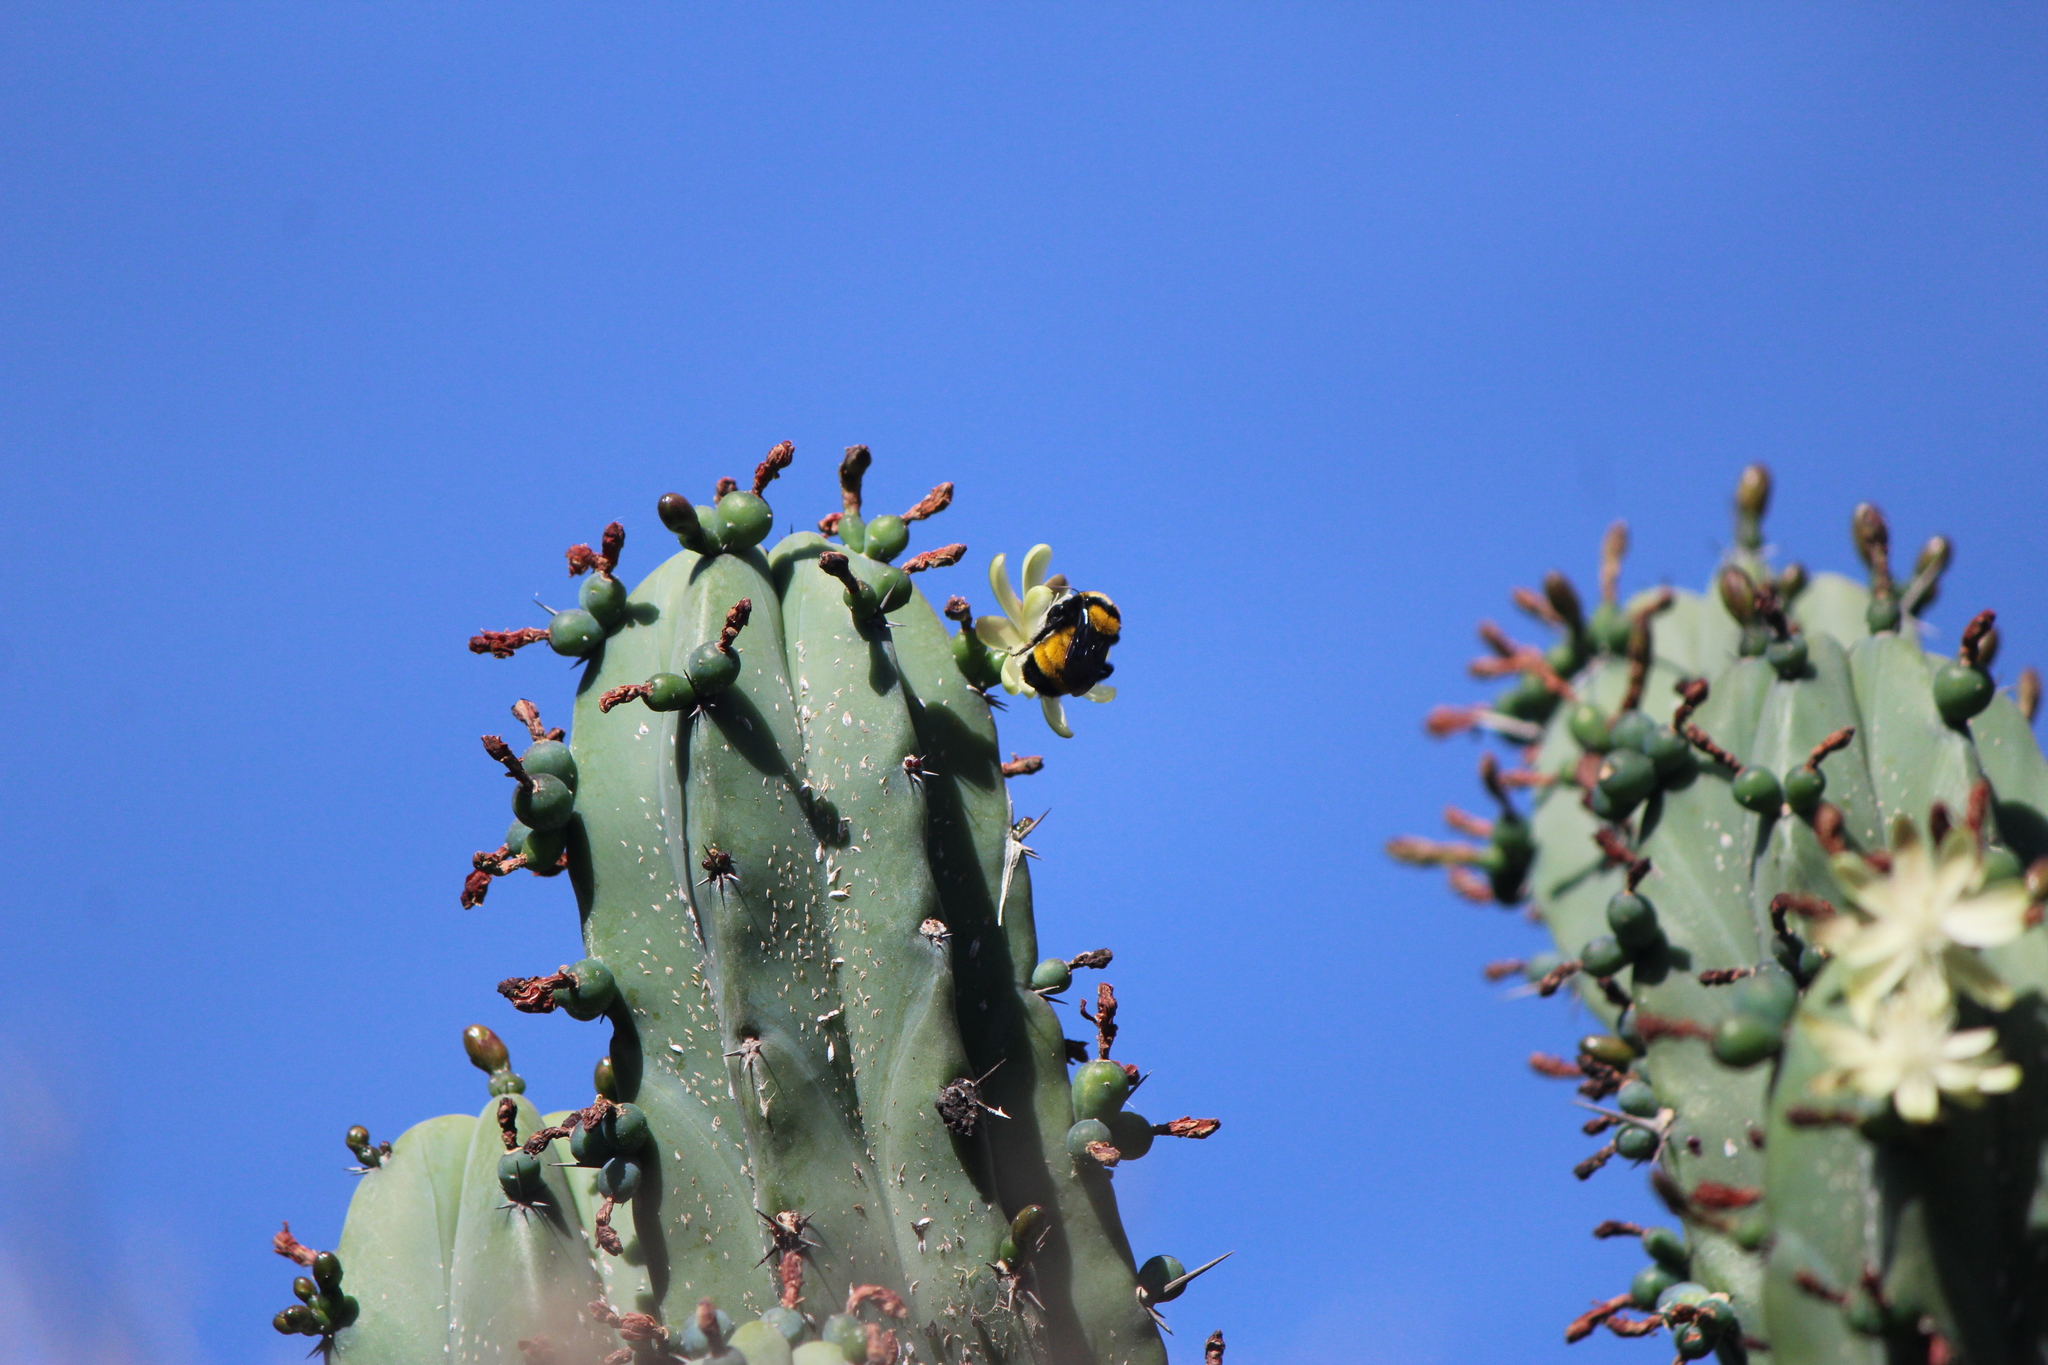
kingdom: Animalia
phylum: Arthropoda
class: Insecta
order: Hymenoptera
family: Apidae
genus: Bombus
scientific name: Bombus sonorus
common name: Sonoran bumble bee
